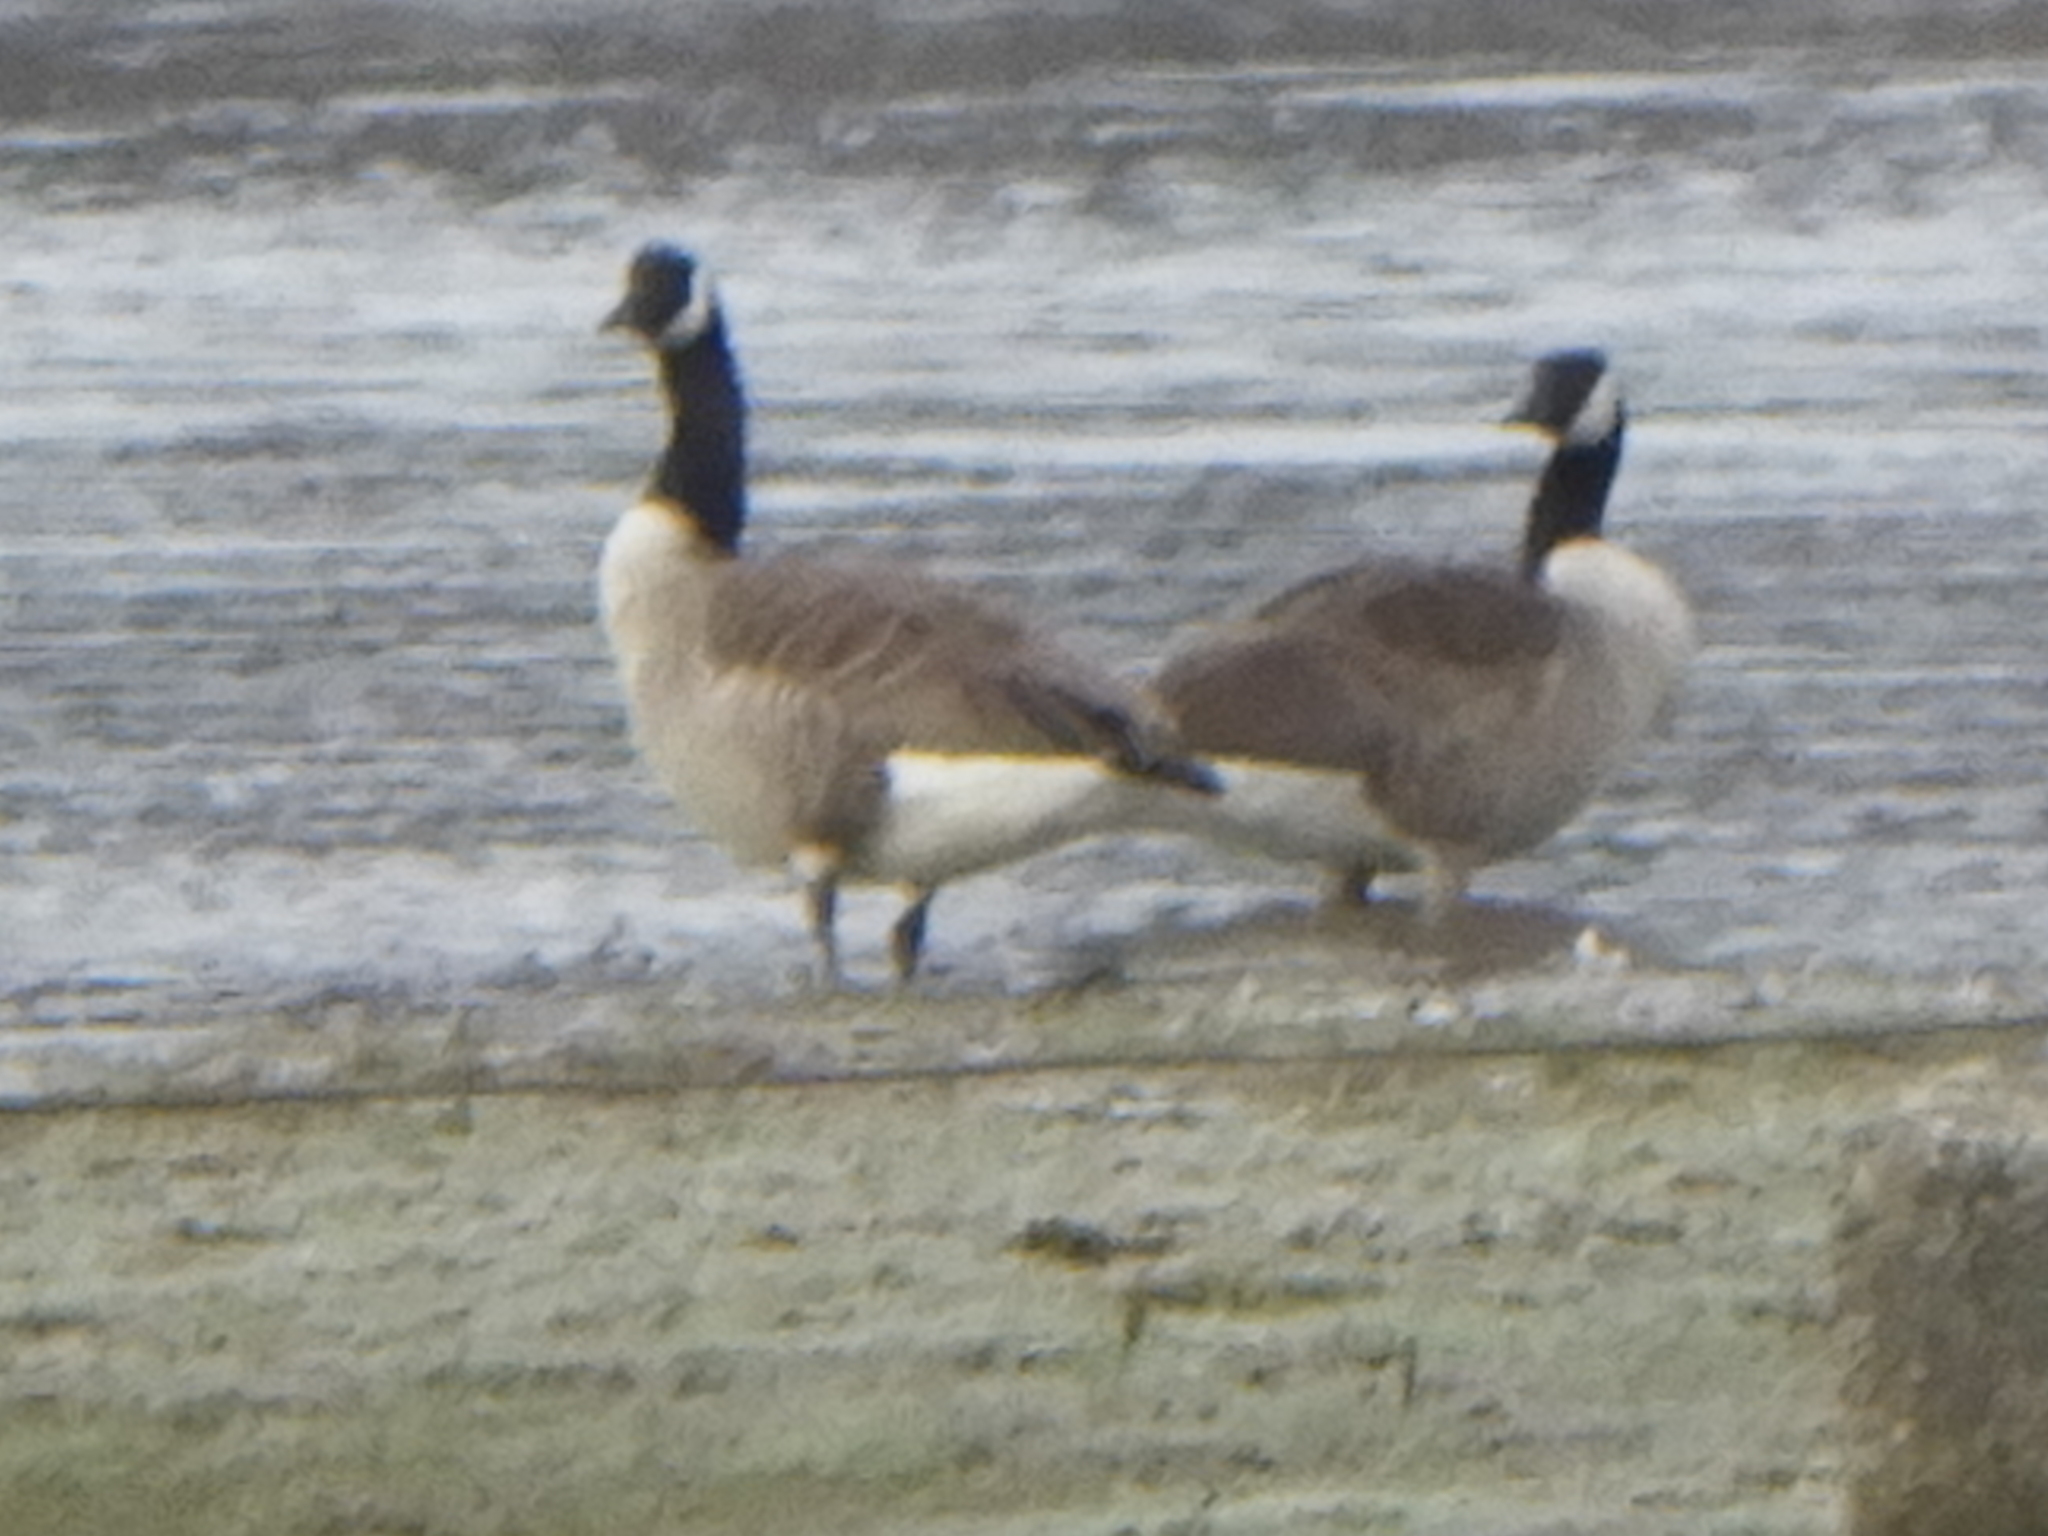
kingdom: Animalia
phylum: Chordata
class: Aves
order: Anseriformes
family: Anatidae
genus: Branta
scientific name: Branta canadensis
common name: Canada goose
